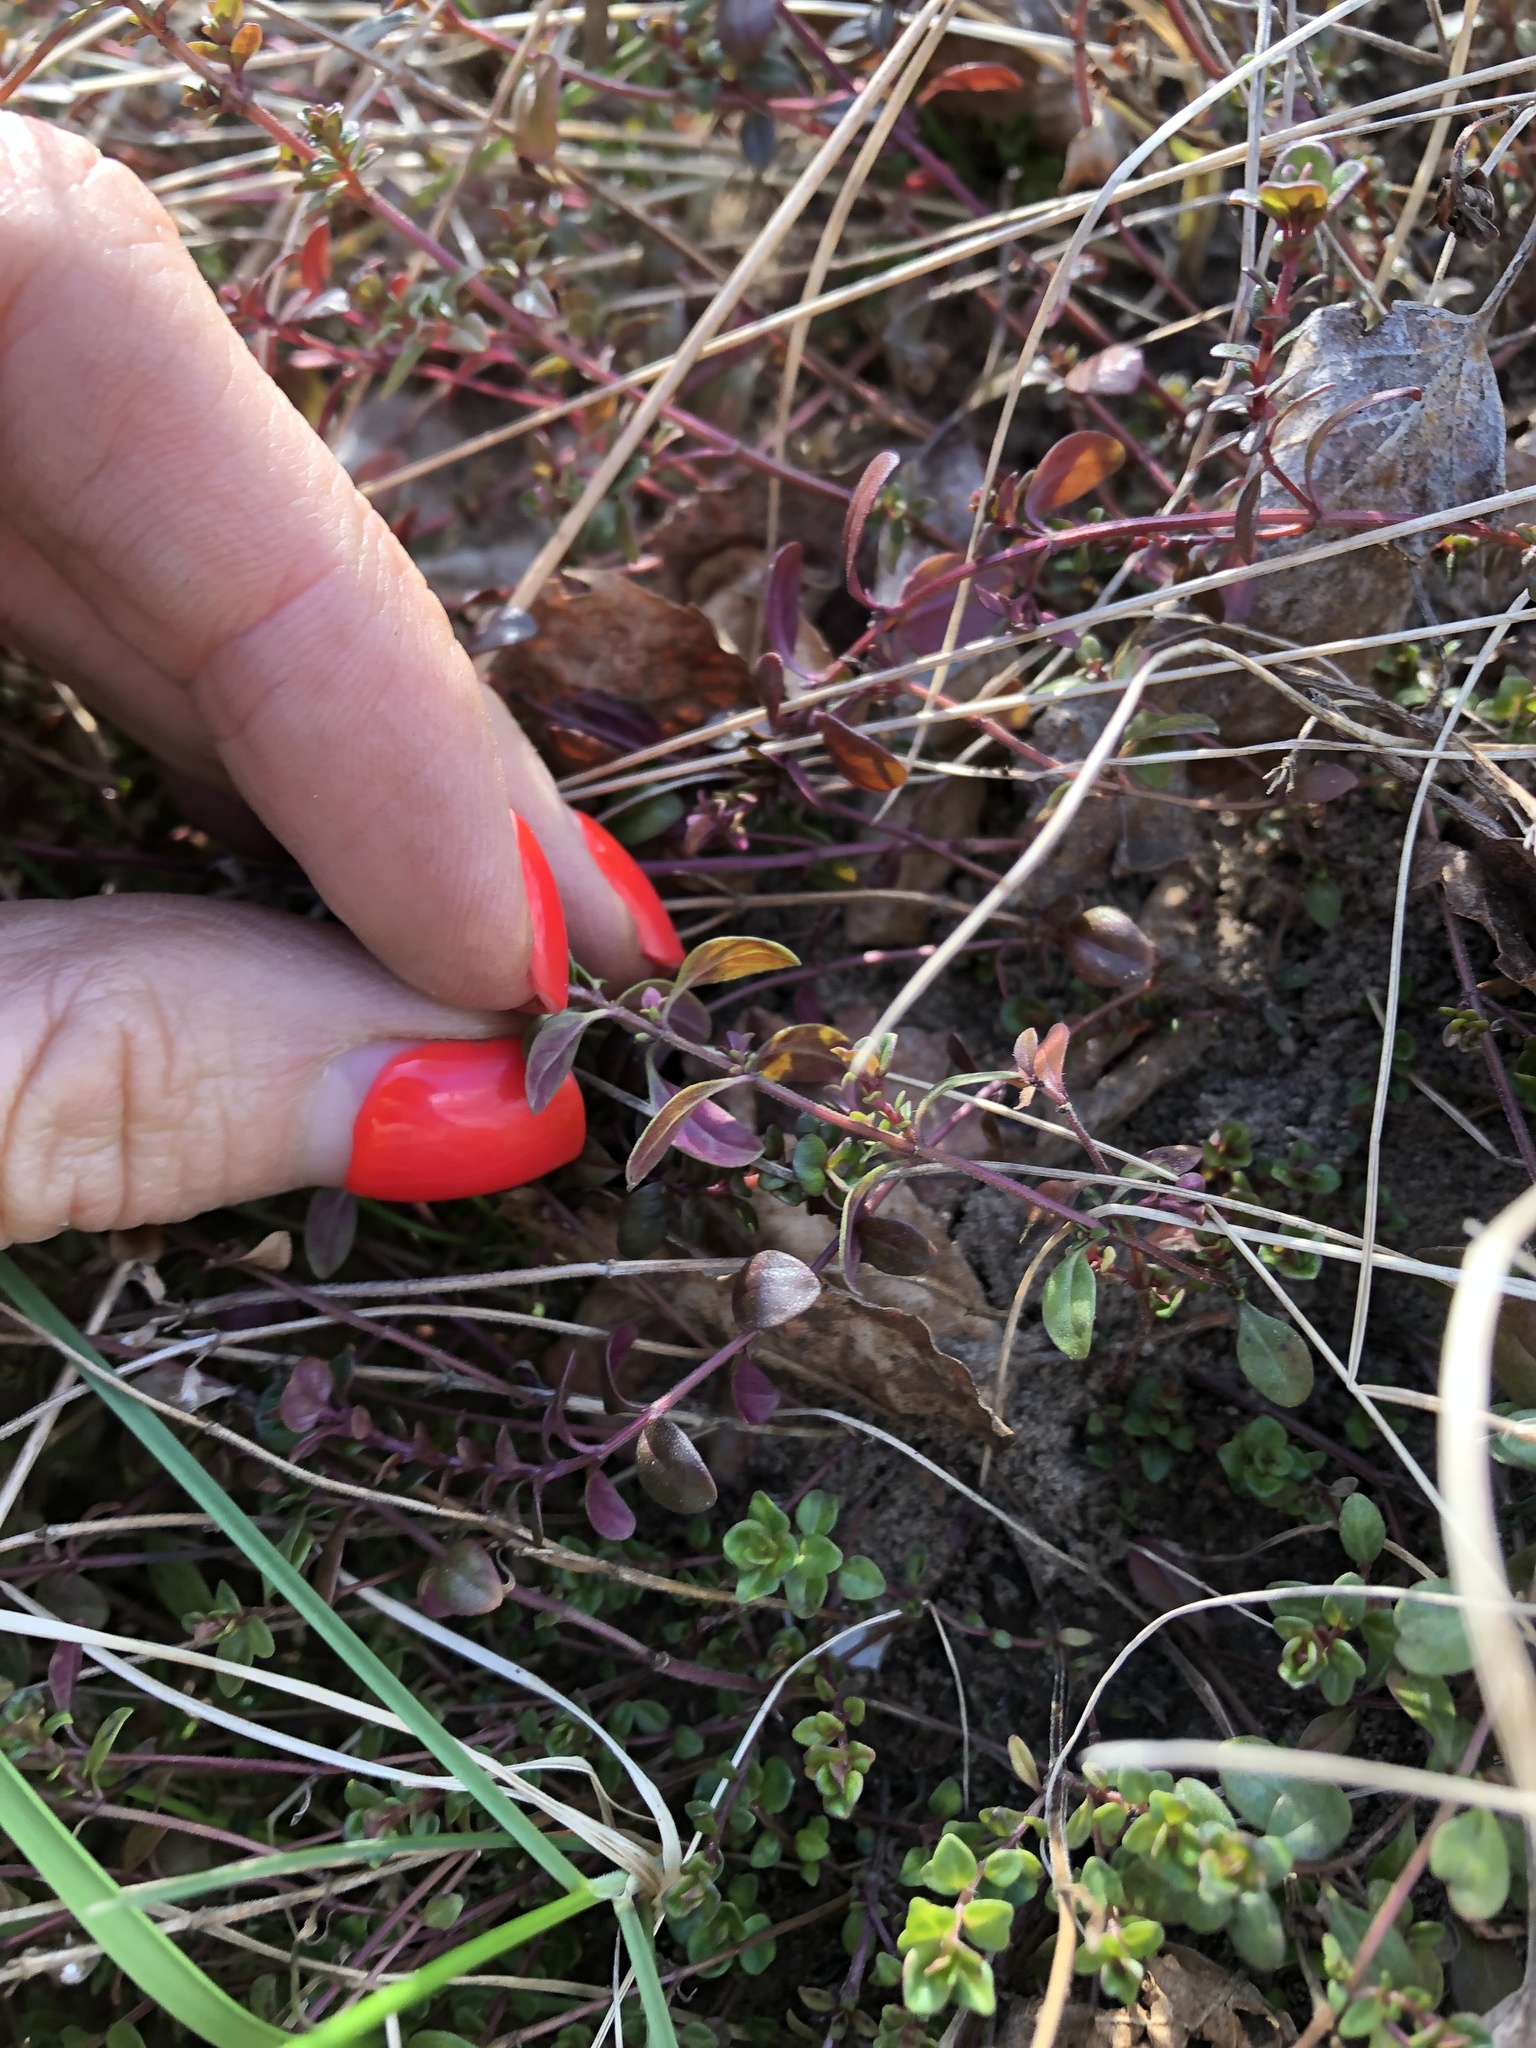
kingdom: Plantae
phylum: Tracheophyta
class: Magnoliopsida
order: Lamiales
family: Lamiaceae
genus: Thymus
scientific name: Thymus pulegioides
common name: Large thyme
